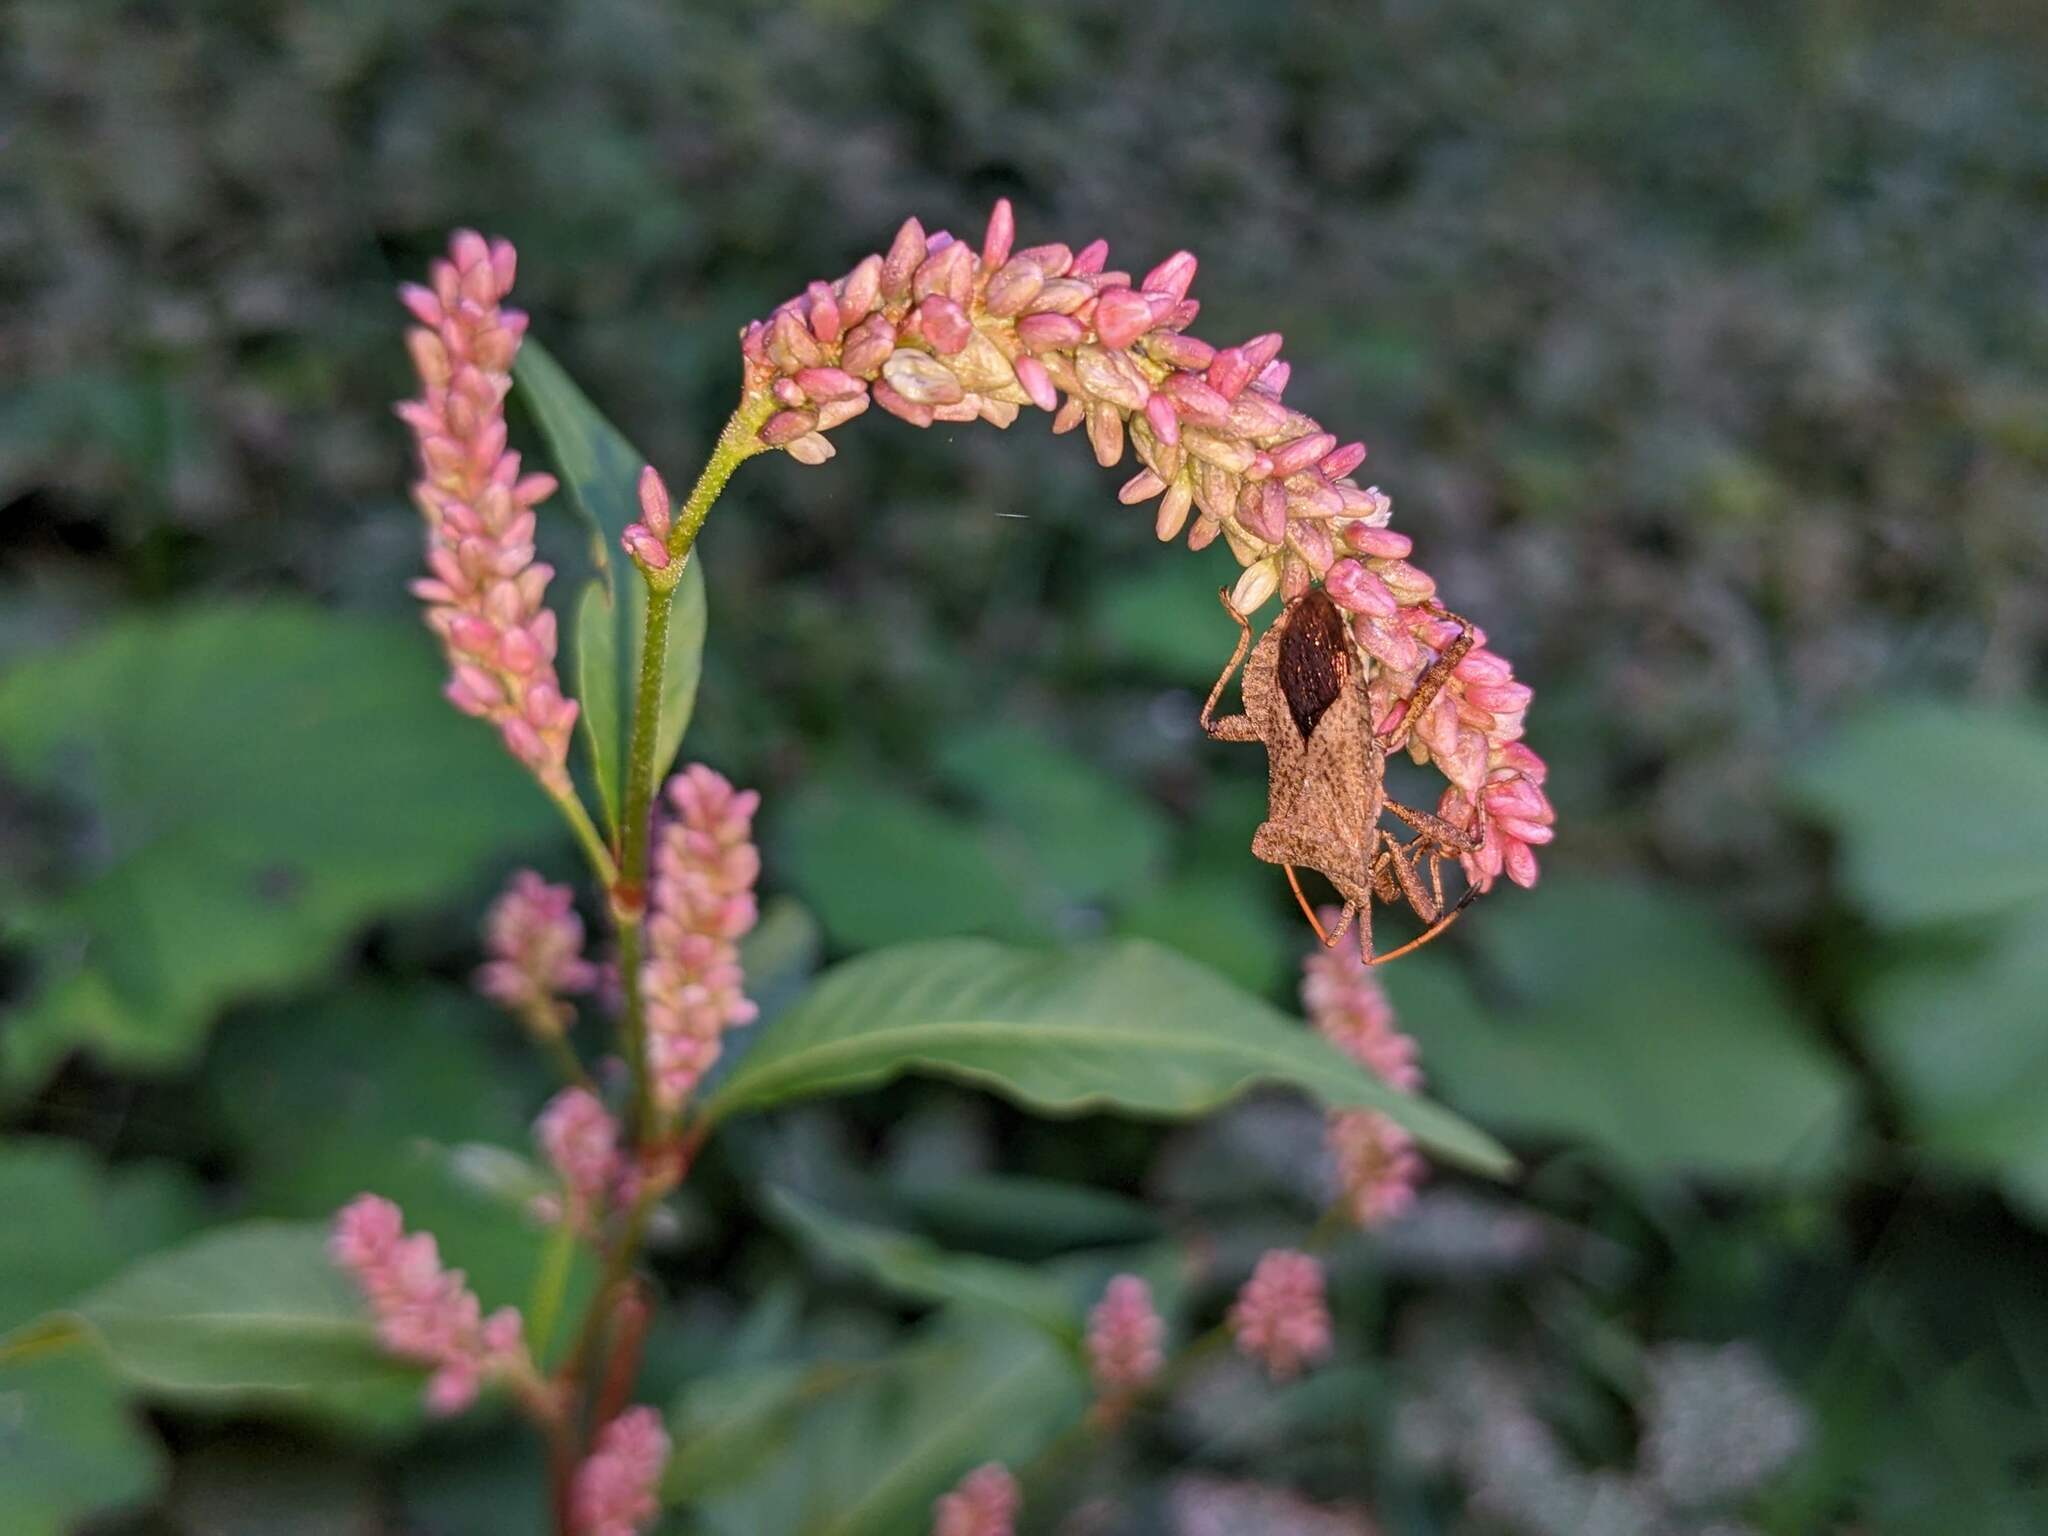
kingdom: Animalia
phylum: Arthropoda
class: Insecta
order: Hemiptera
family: Coreidae
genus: Coreus
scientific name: Coreus marginatus
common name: Dock bug
